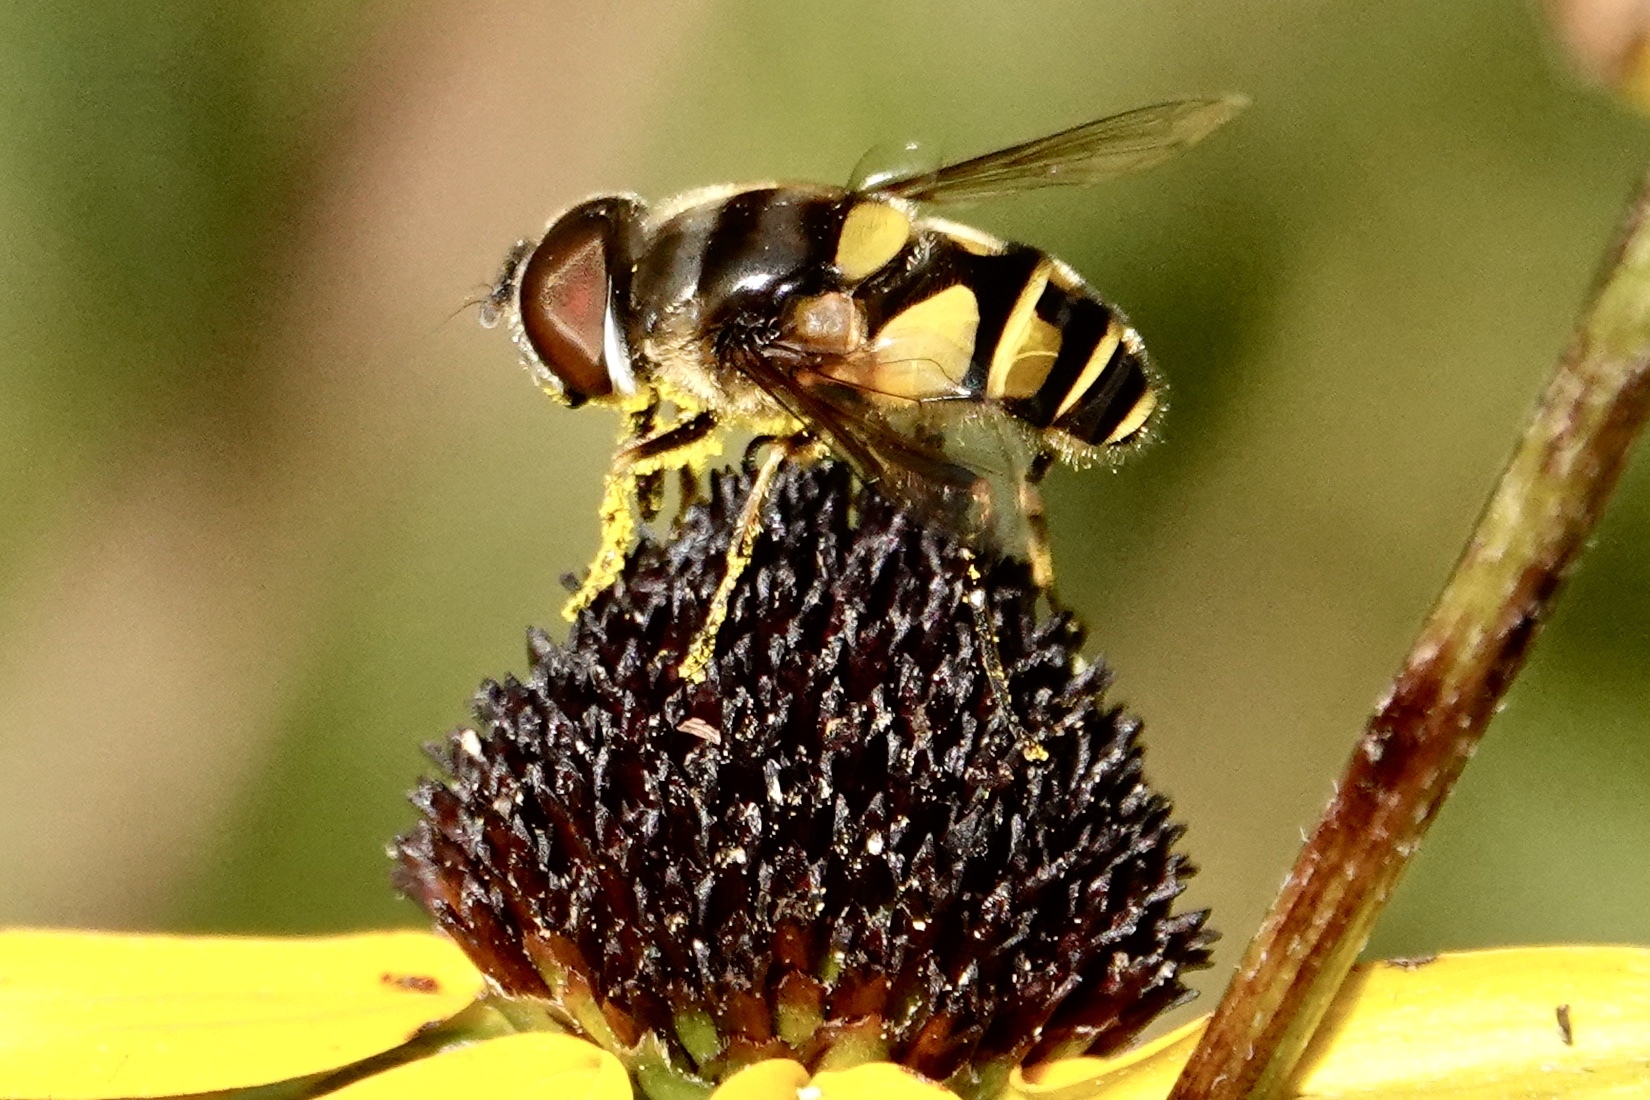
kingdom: Animalia
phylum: Arthropoda
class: Insecta
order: Diptera
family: Syrphidae
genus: Eristalis
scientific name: Eristalis transversa
